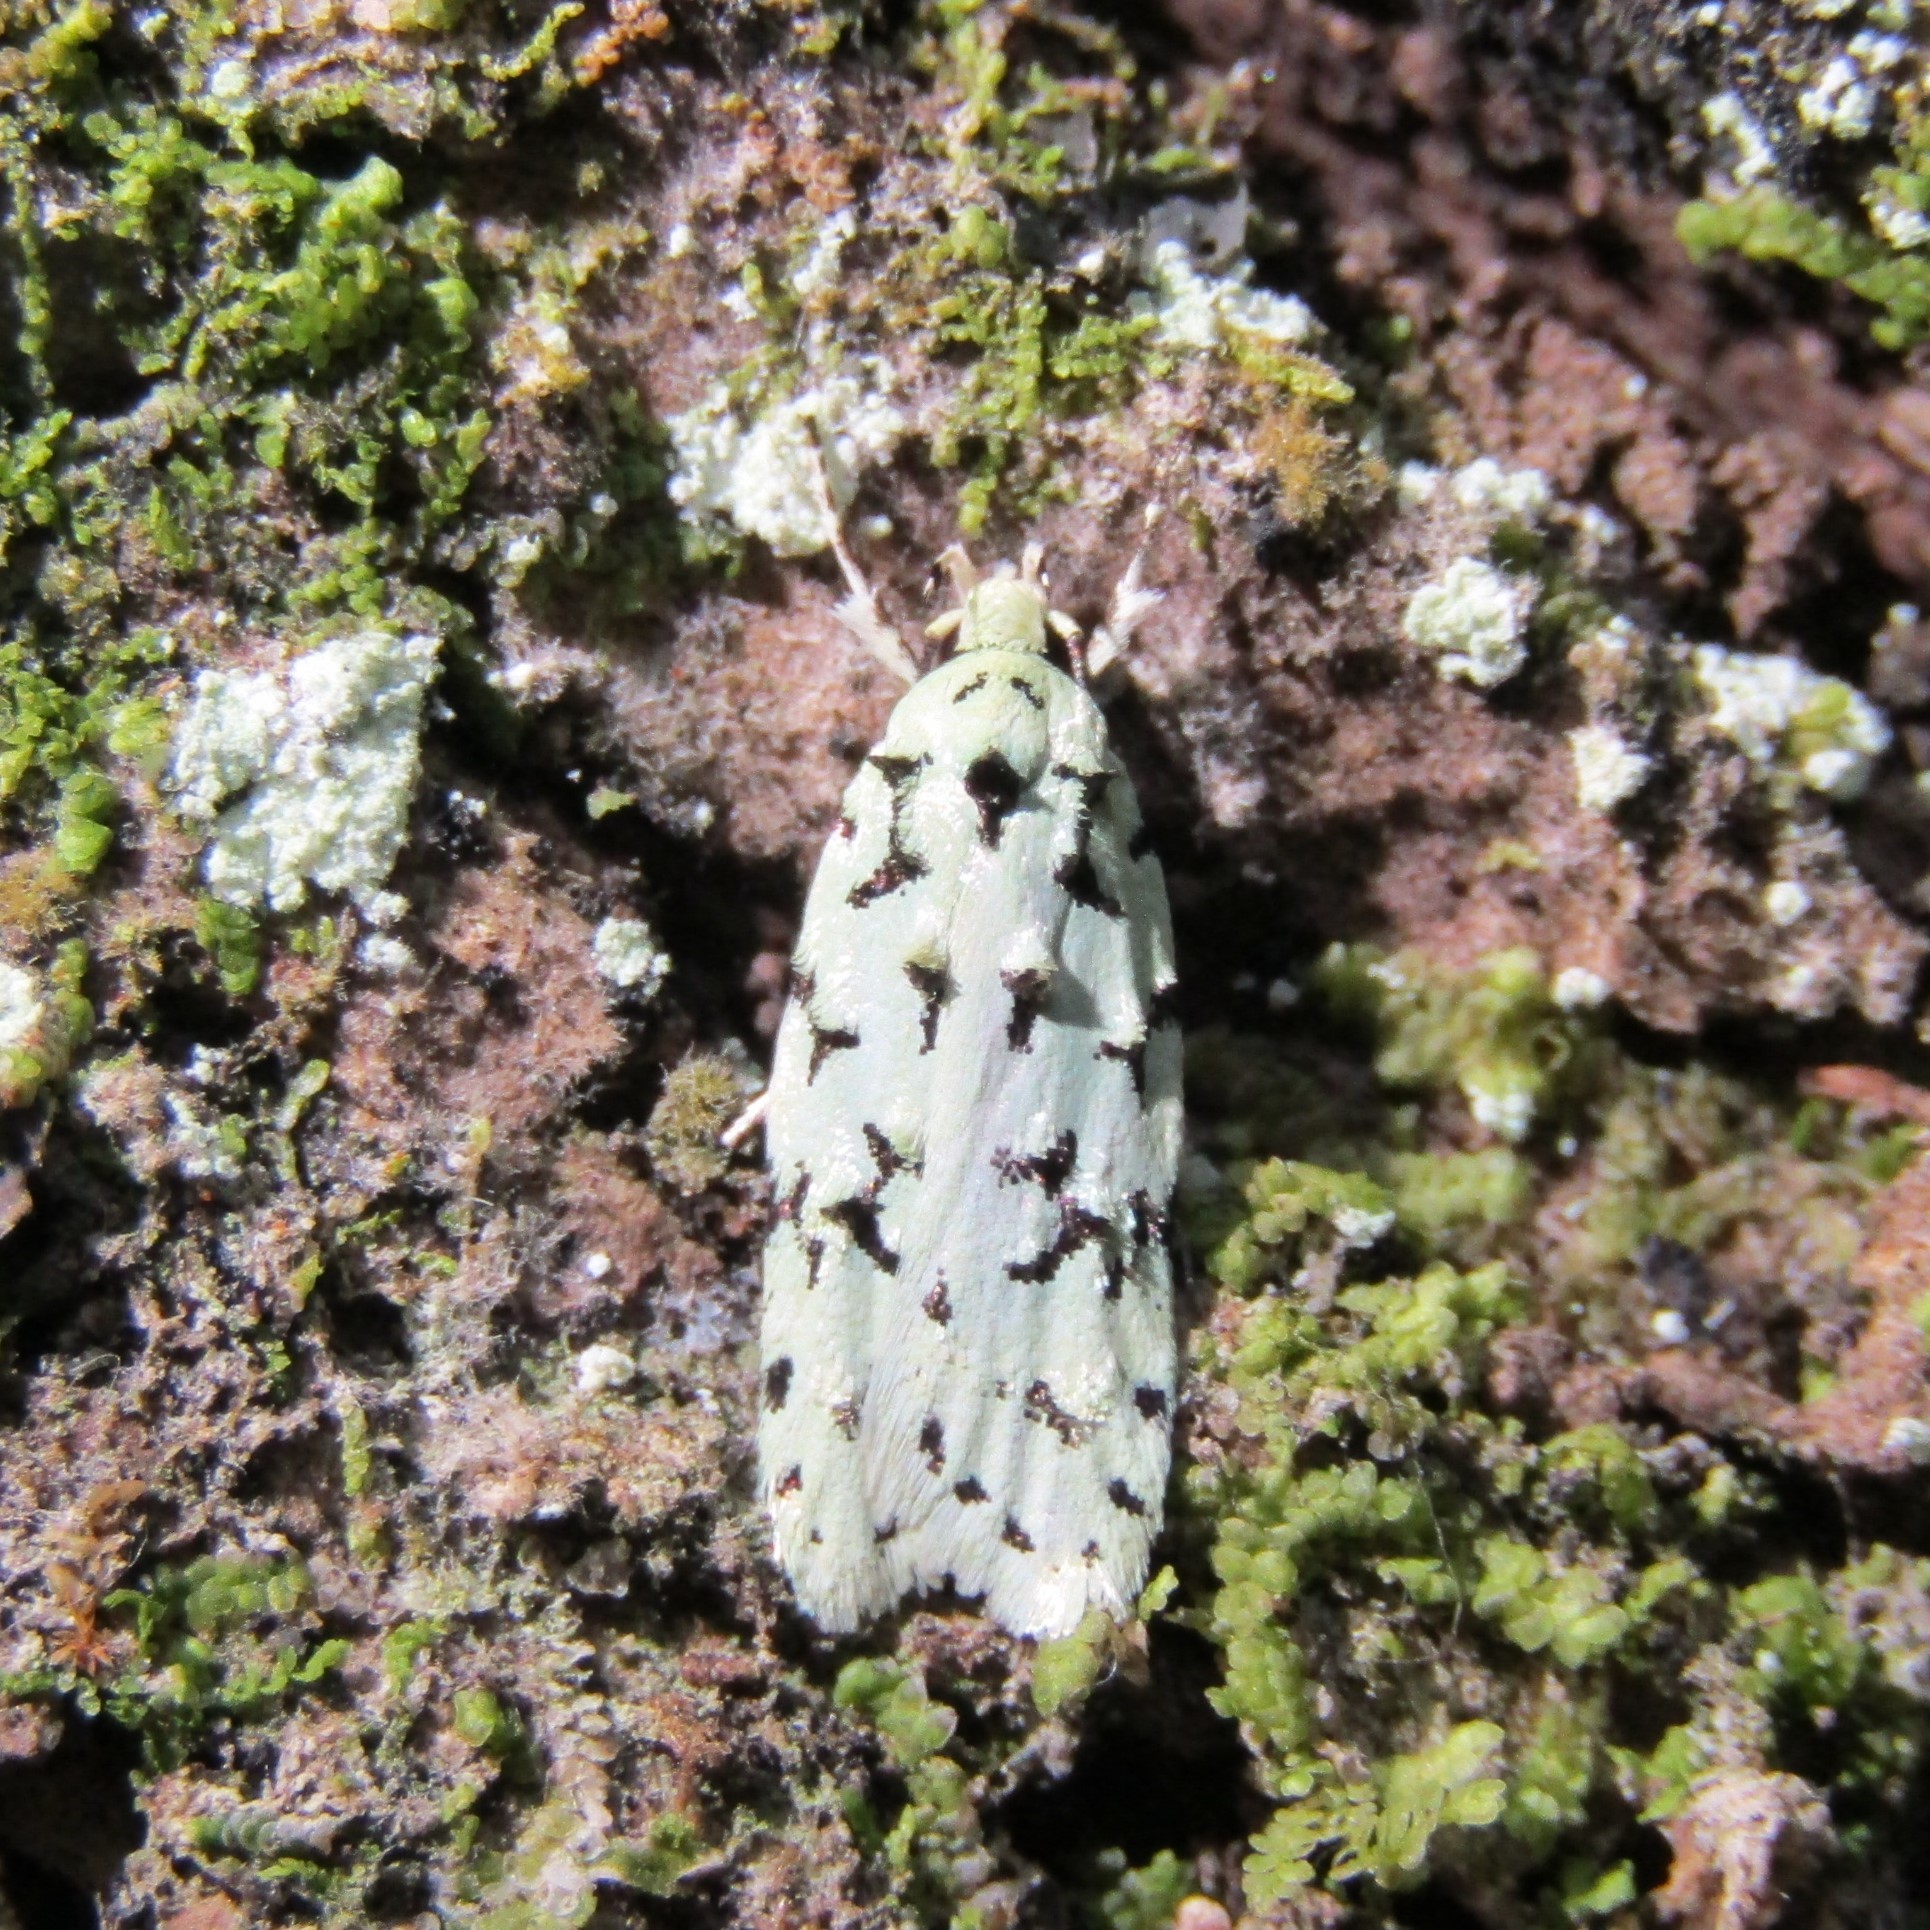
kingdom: Animalia
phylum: Arthropoda
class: Insecta
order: Lepidoptera
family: Oecophoridae
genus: Izatha
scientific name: Izatha huttoni
